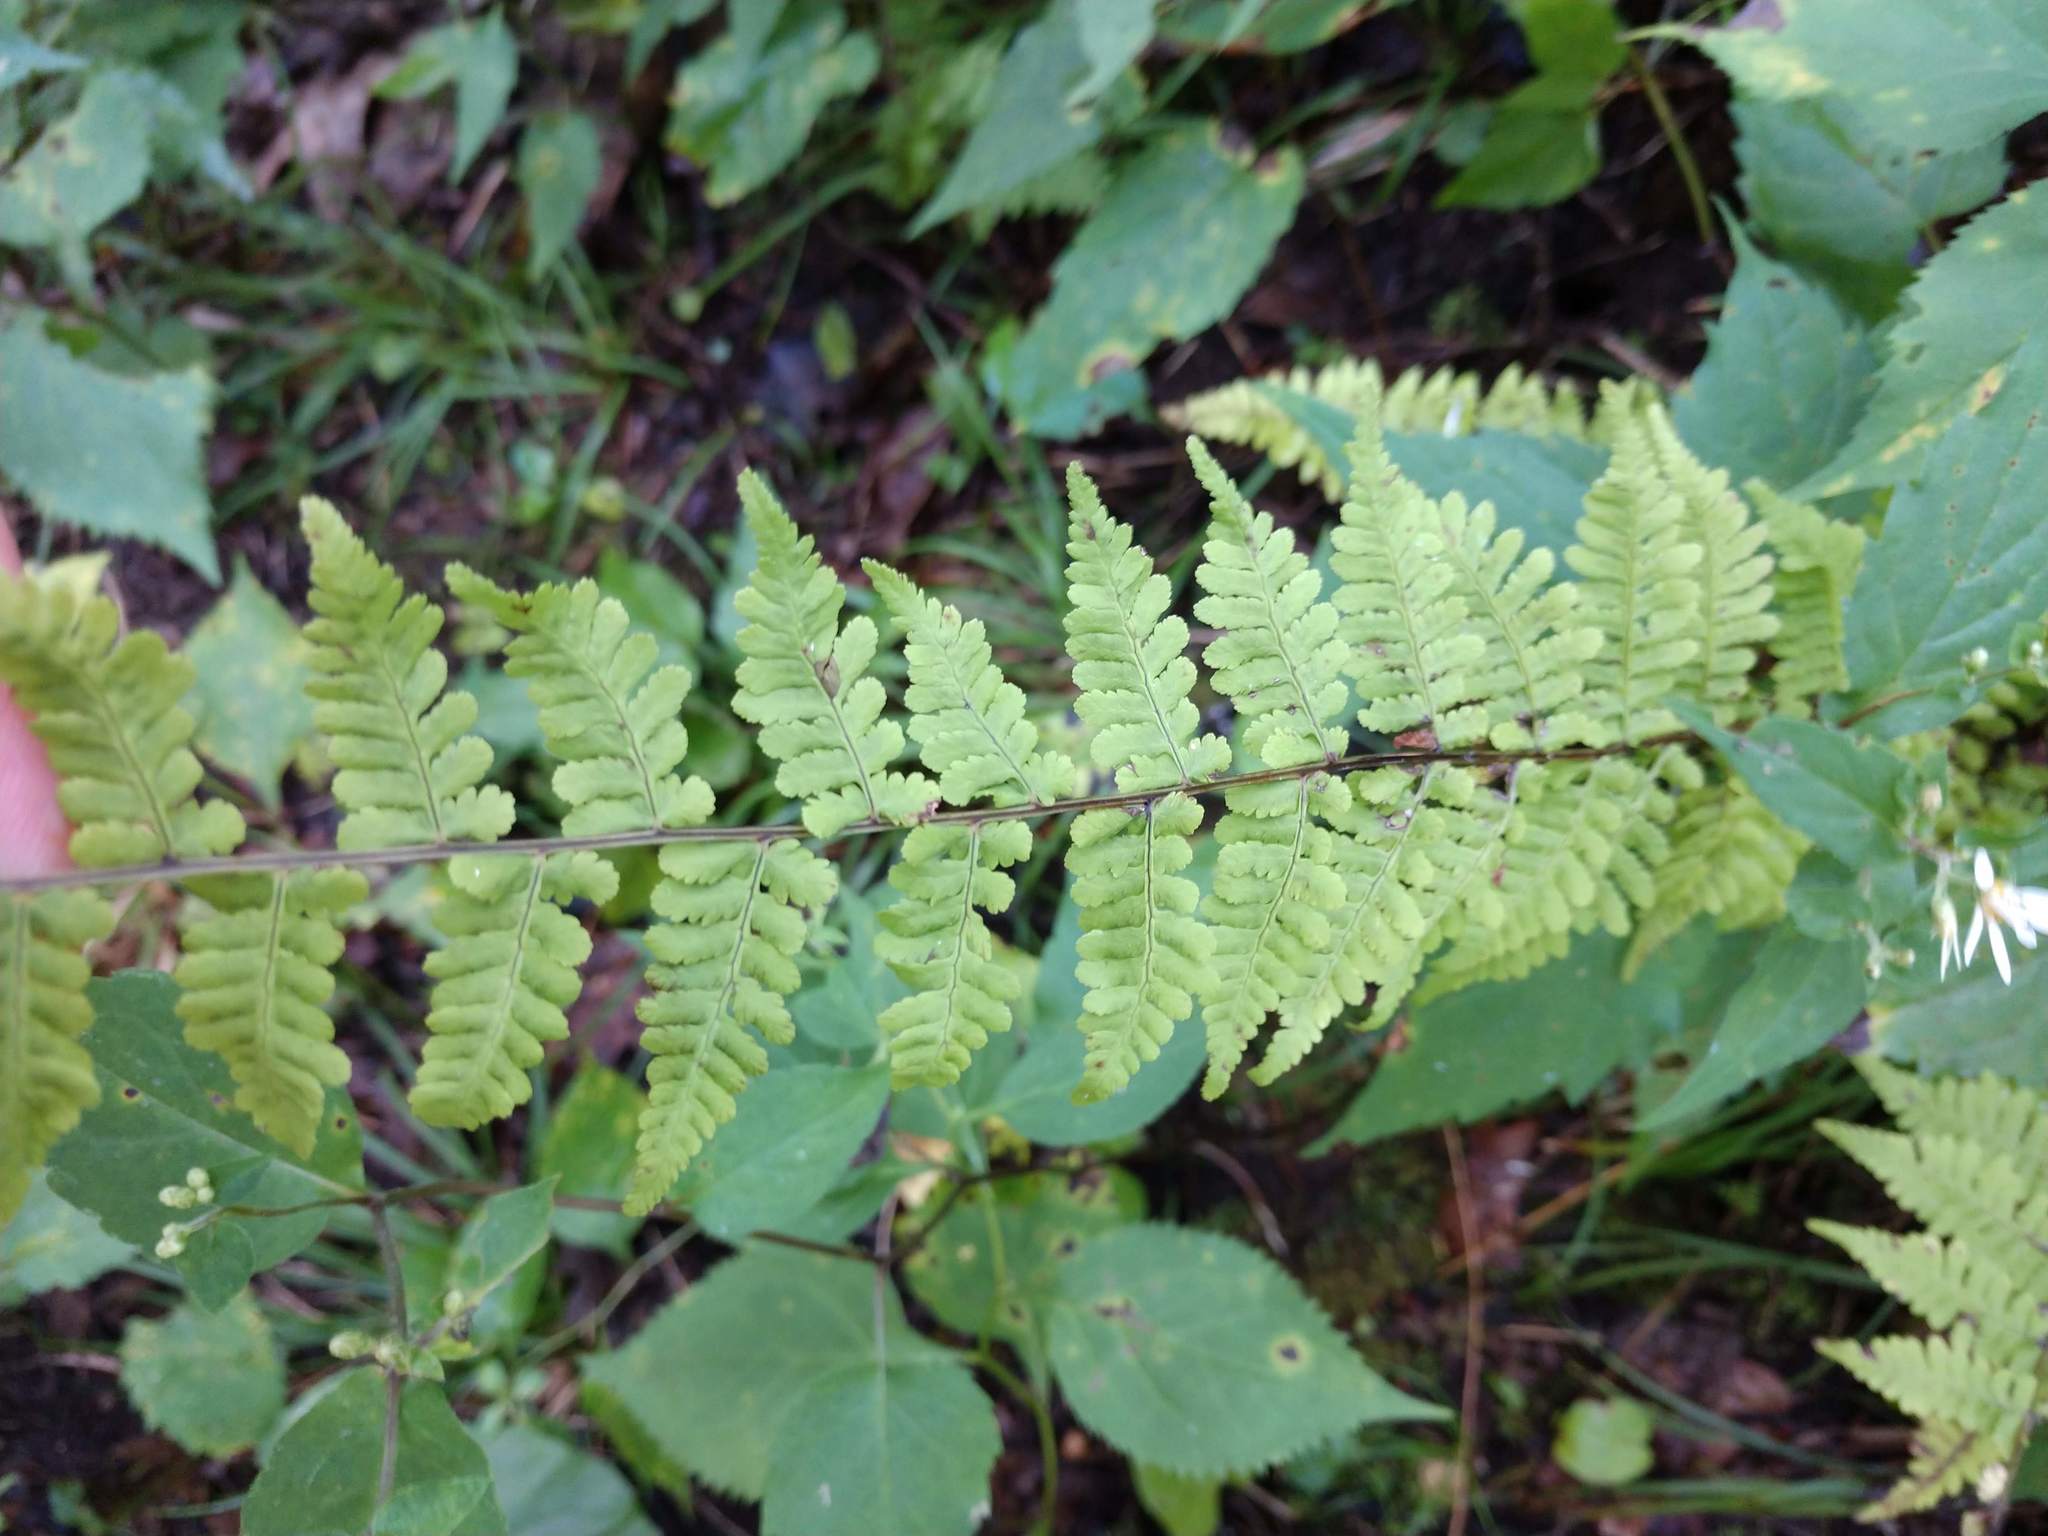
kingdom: Plantae
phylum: Tracheophyta
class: Polypodiopsida
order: Polypodiales
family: Cystopteridaceae
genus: Cystopteris
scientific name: Cystopteris bulbifera
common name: Bulblet bladder fern
